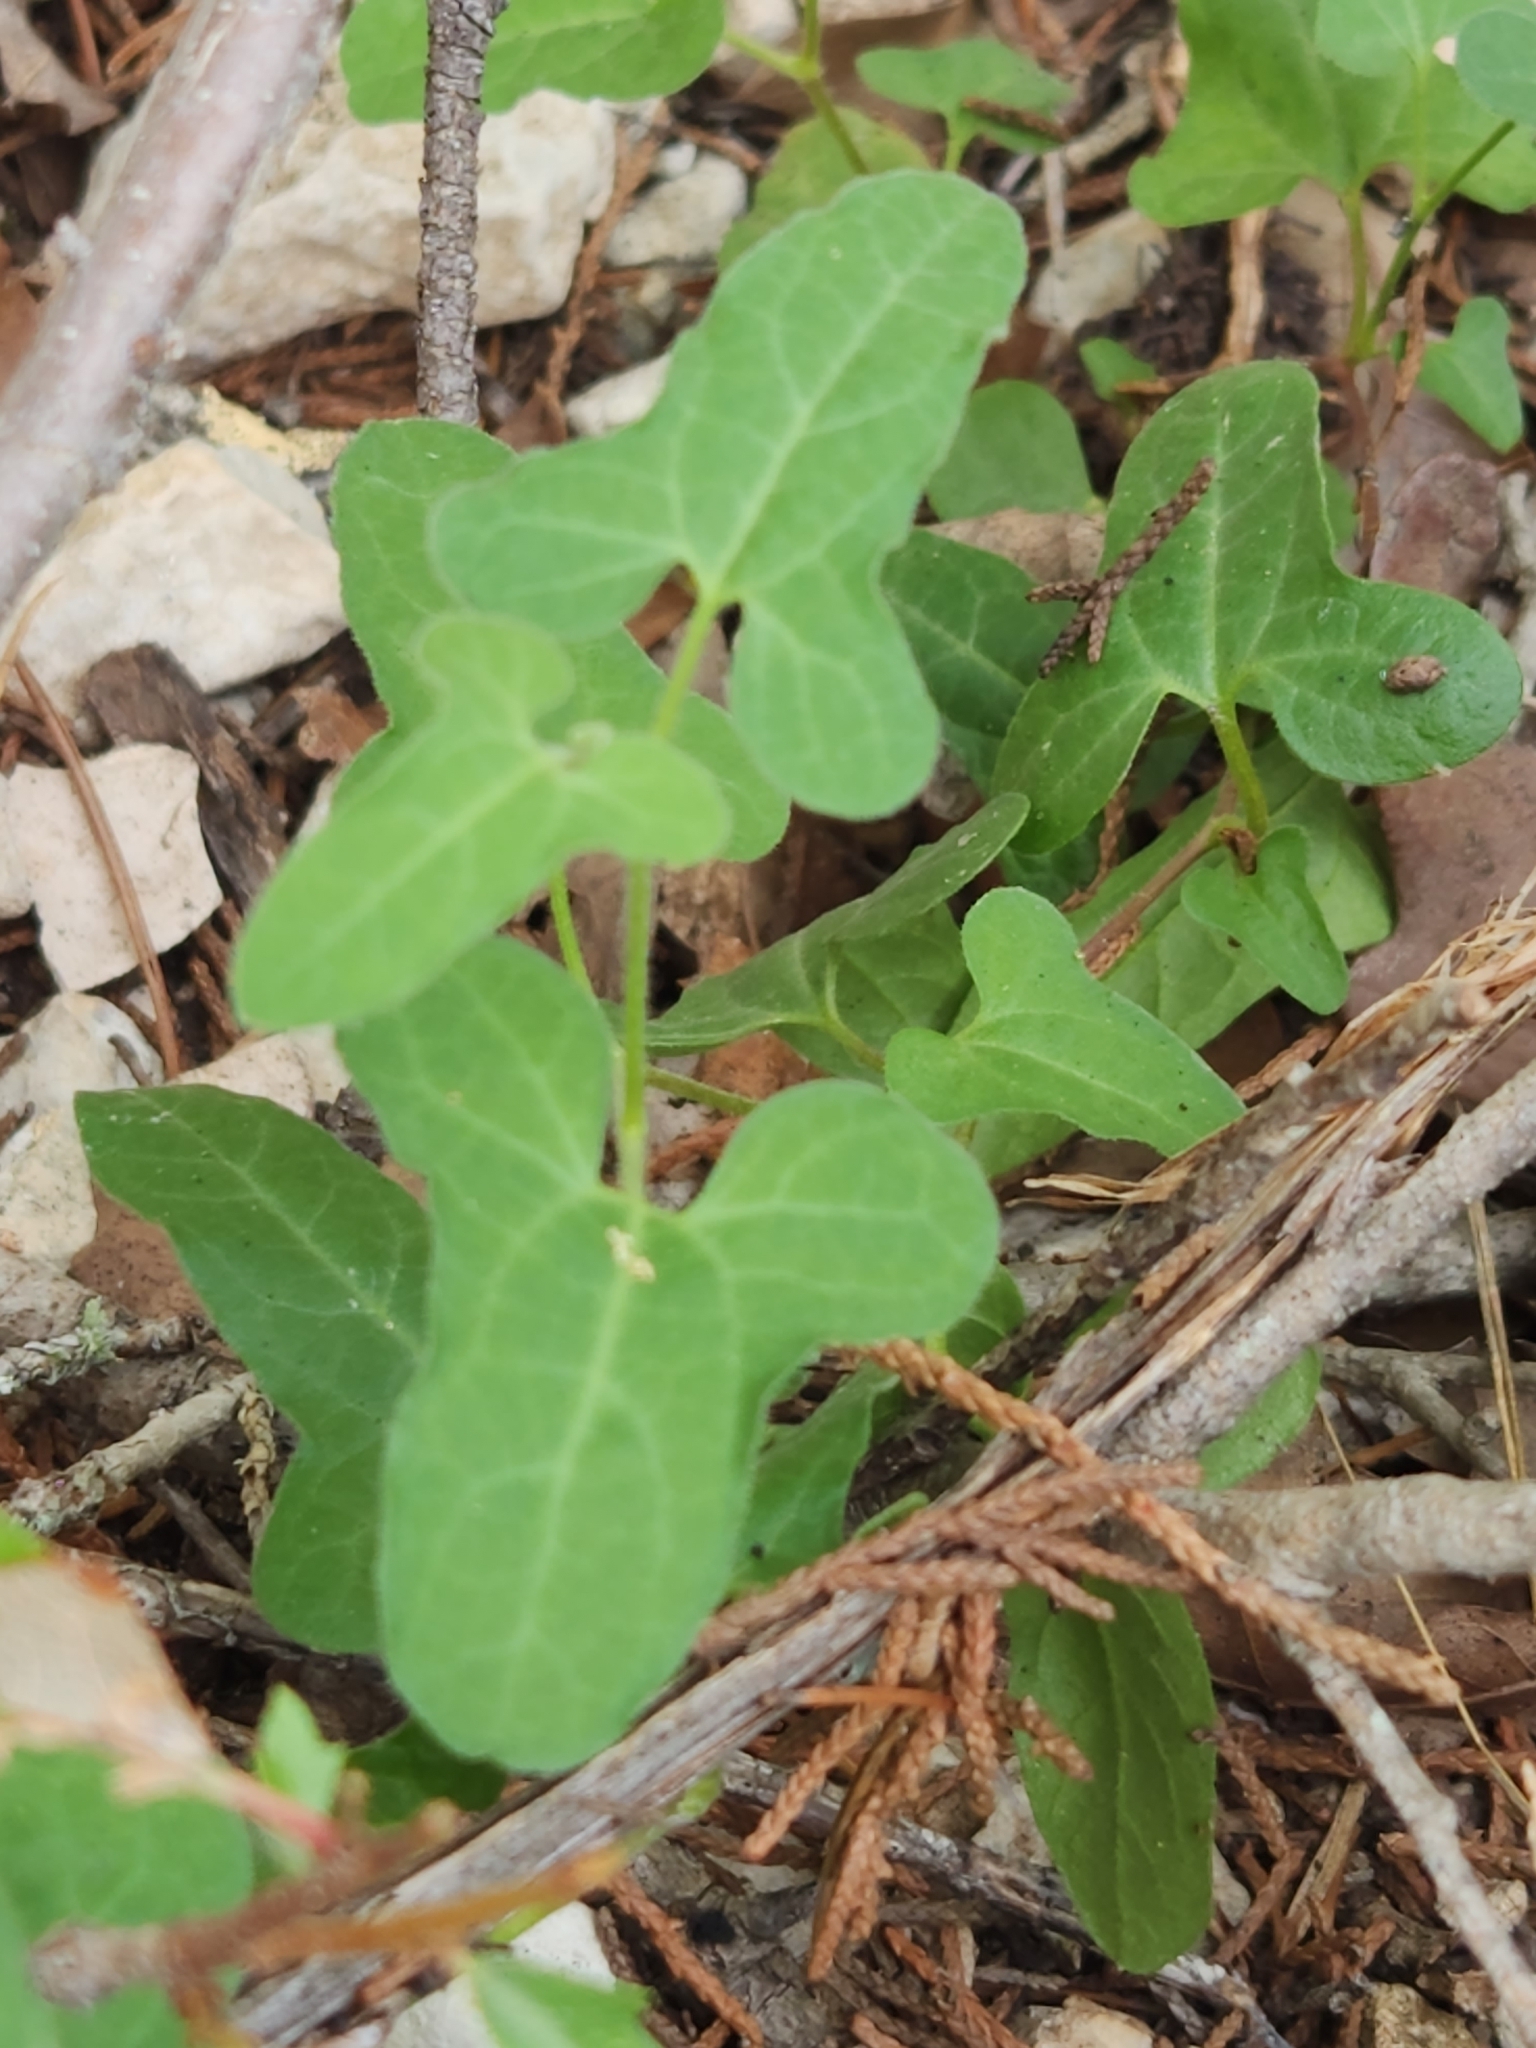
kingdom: Plantae
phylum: Tracheophyta
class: Magnoliopsida
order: Piperales
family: Aristolochiaceae
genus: Aristolochia
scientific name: Aristolochia coryi
